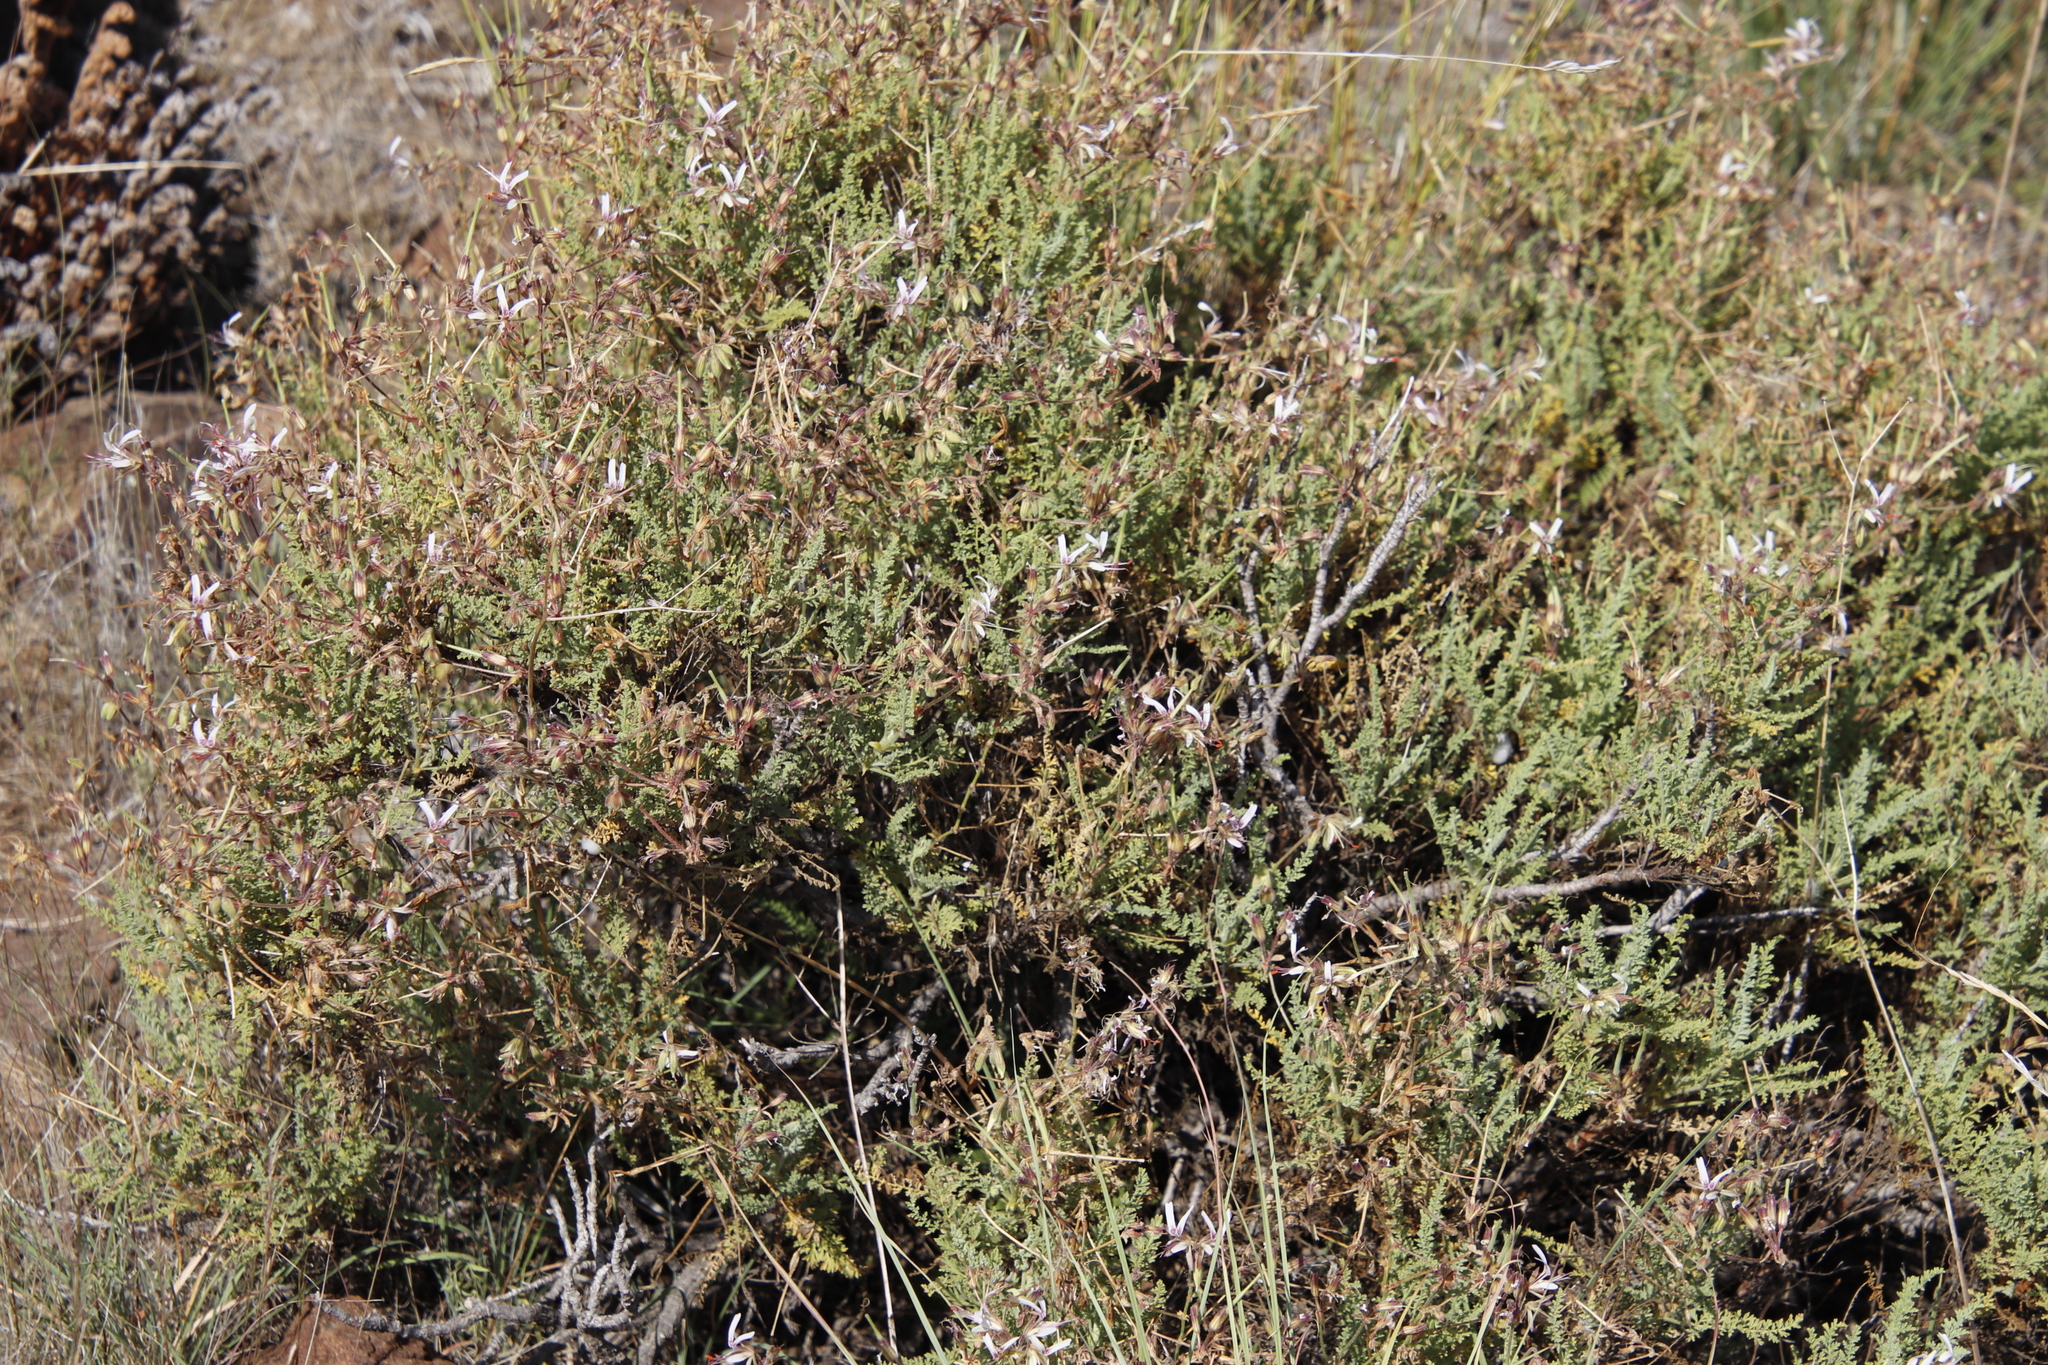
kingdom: Plantae
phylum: Tracheophyta
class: Magnoliopsida
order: Geraniales
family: Geraniaceae
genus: Pelargonium
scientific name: Pelargonium tragacanthoides
